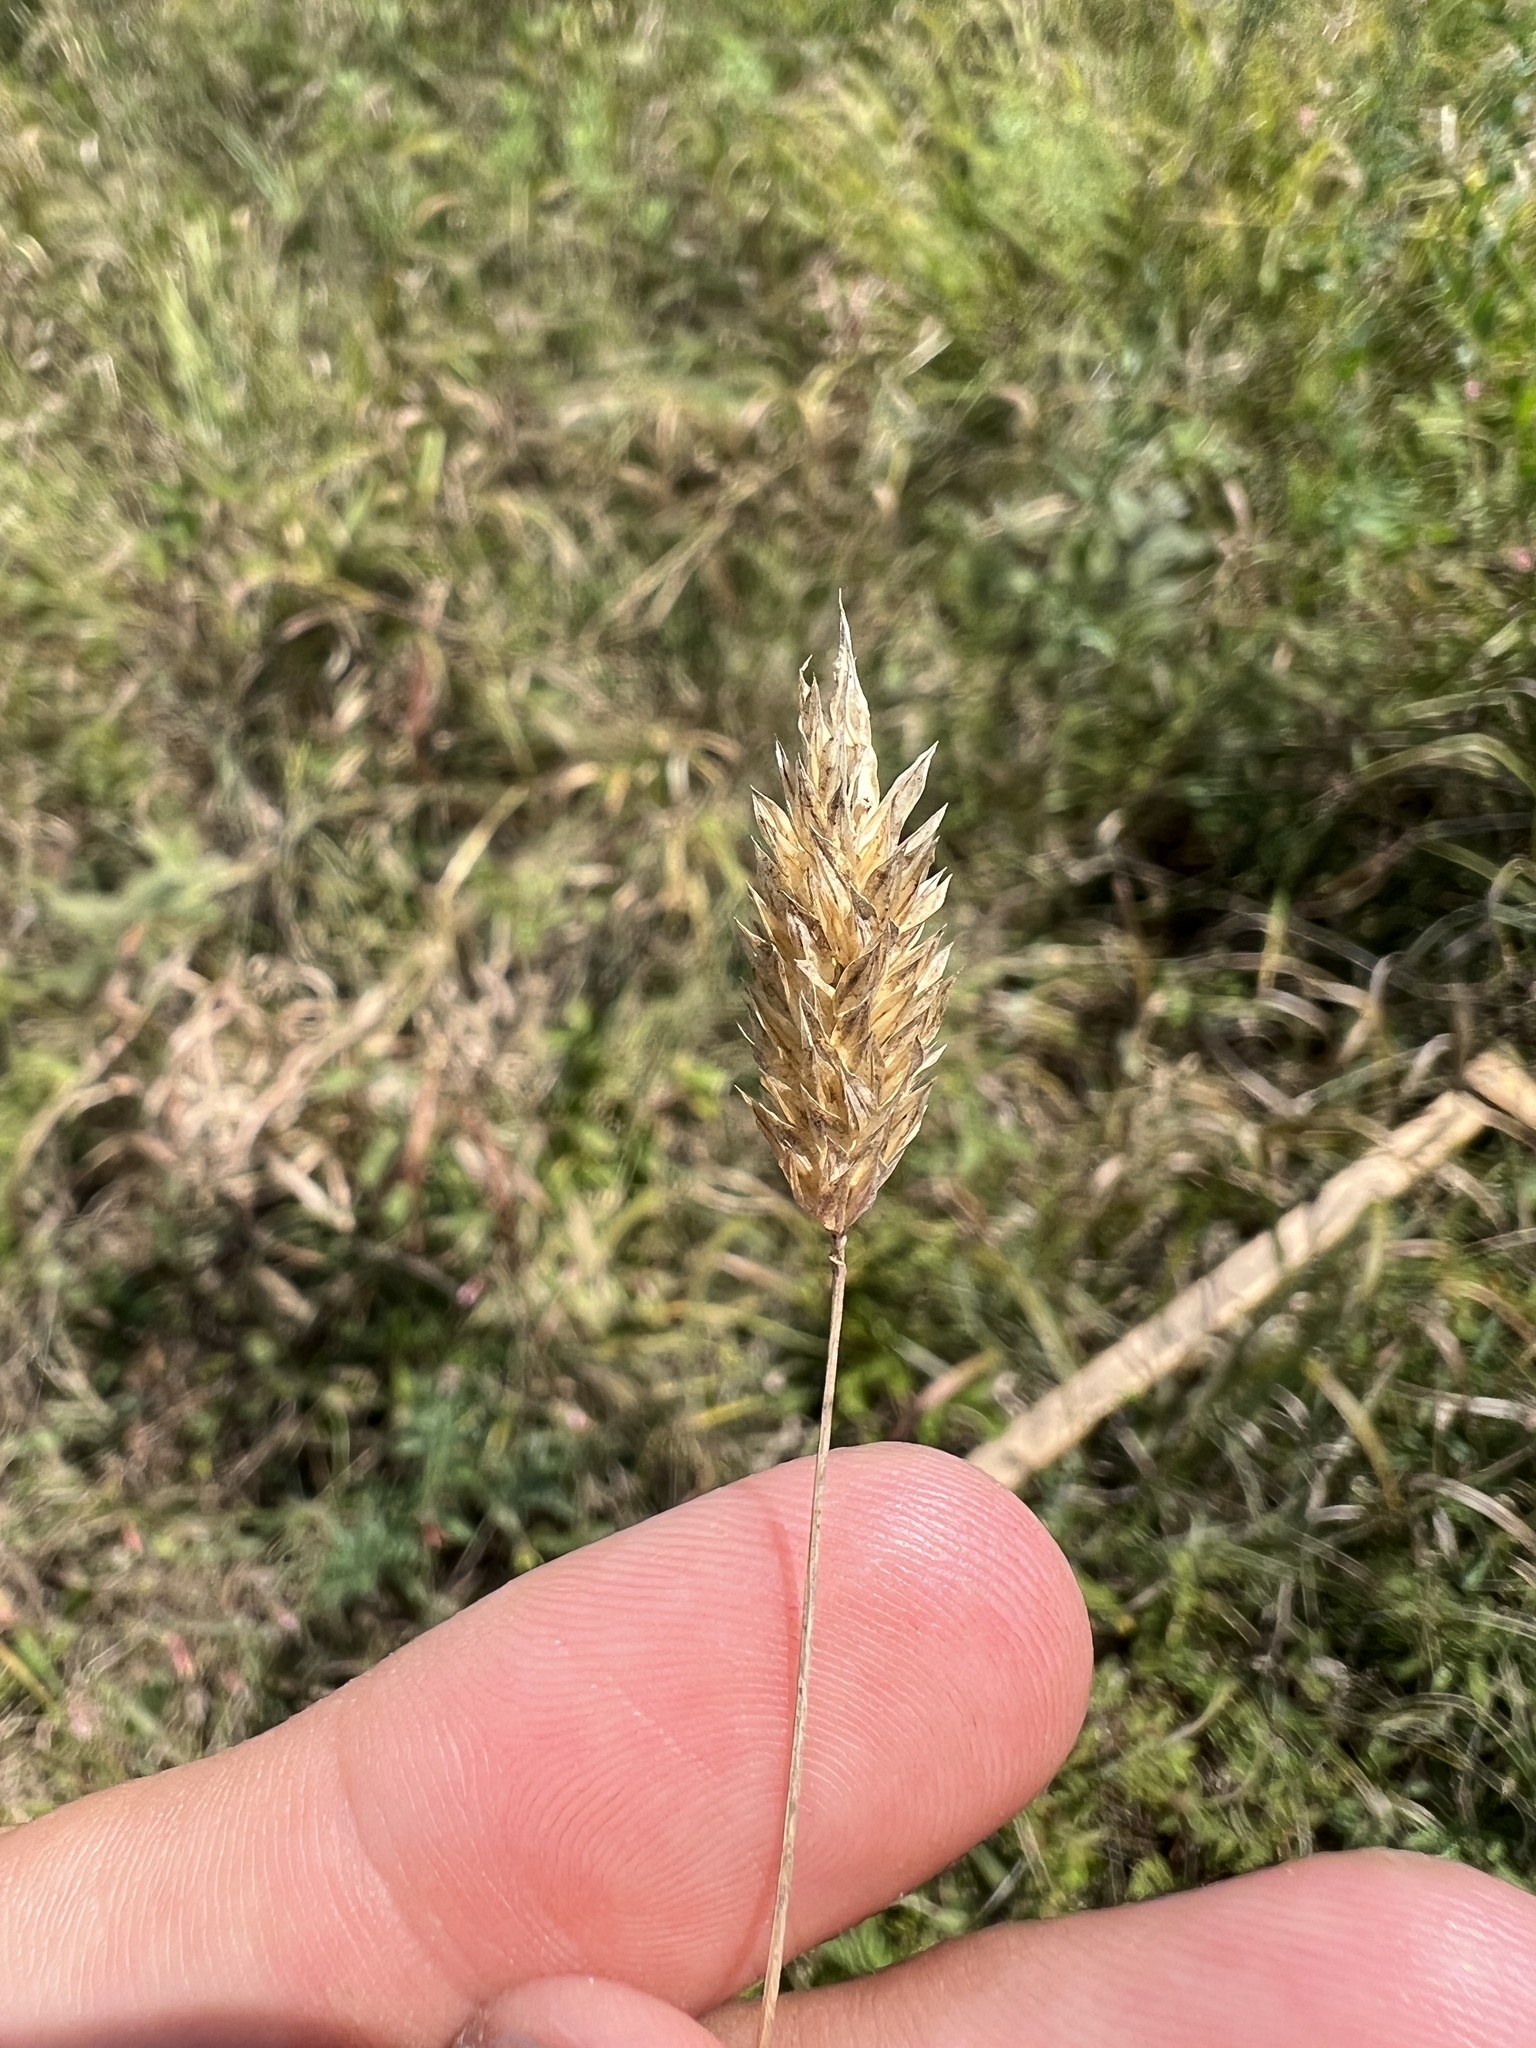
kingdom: Plantae
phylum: Tracheophyta
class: Liliopsida
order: Poales
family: Poaceae
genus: Phalaris
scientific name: Phalaris caroliniana
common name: May grass
